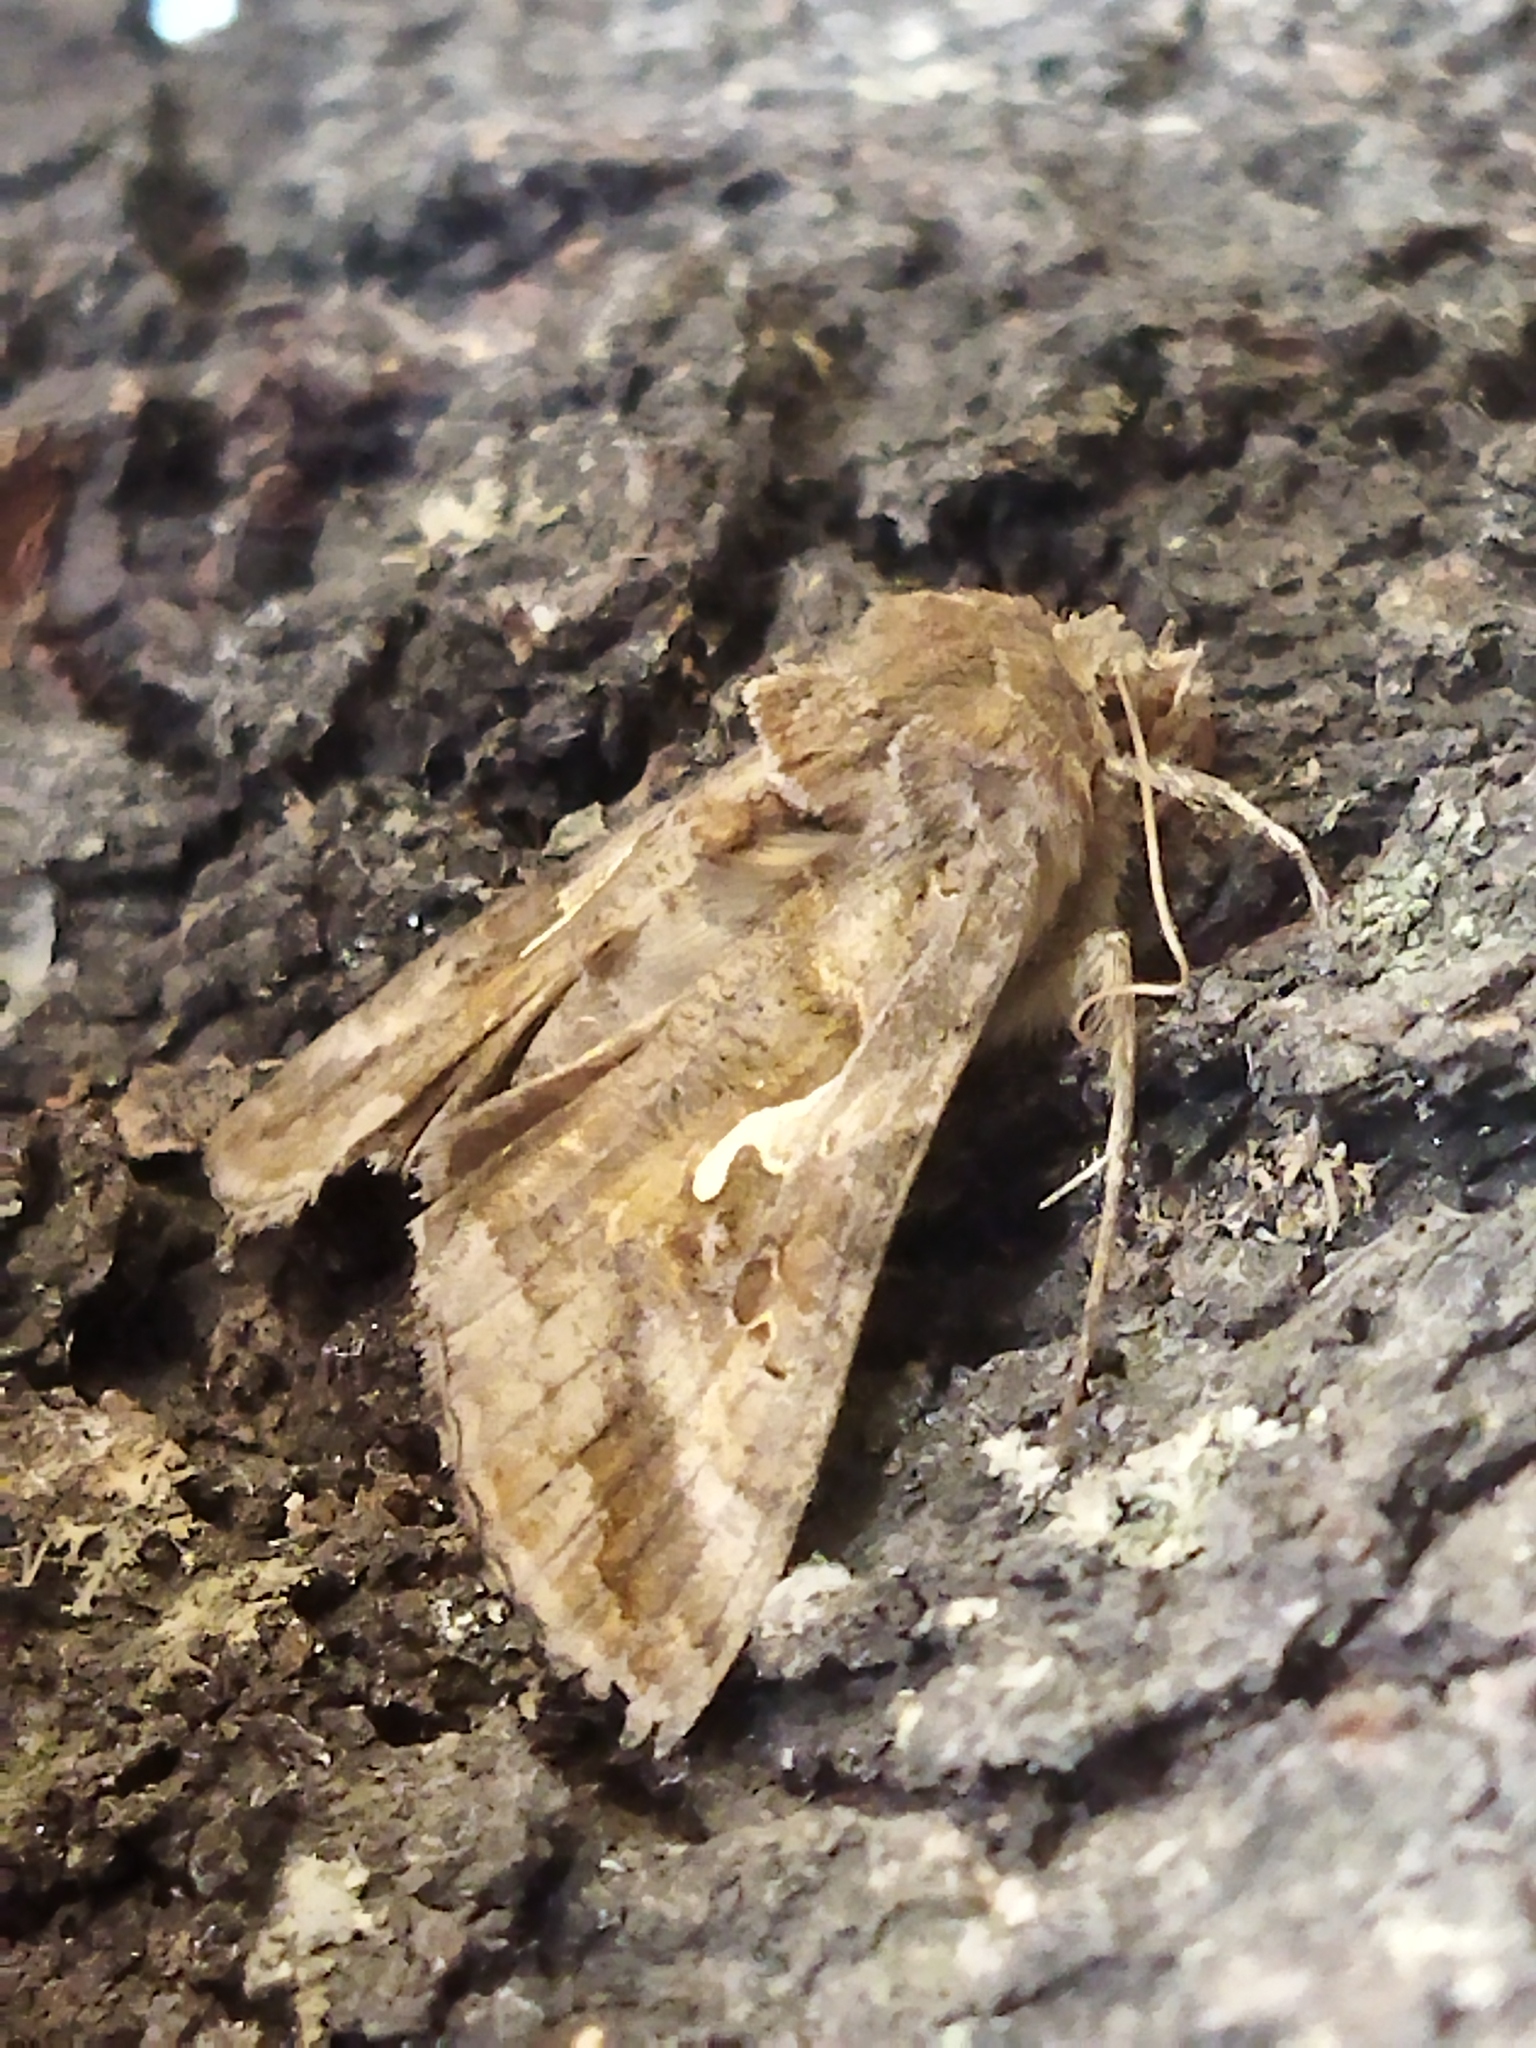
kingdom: Animalia
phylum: Arthropoda
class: Insecta
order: Lepidoptera
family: Noctuidae
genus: Autographa
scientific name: Autographa gamma
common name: Silver y
